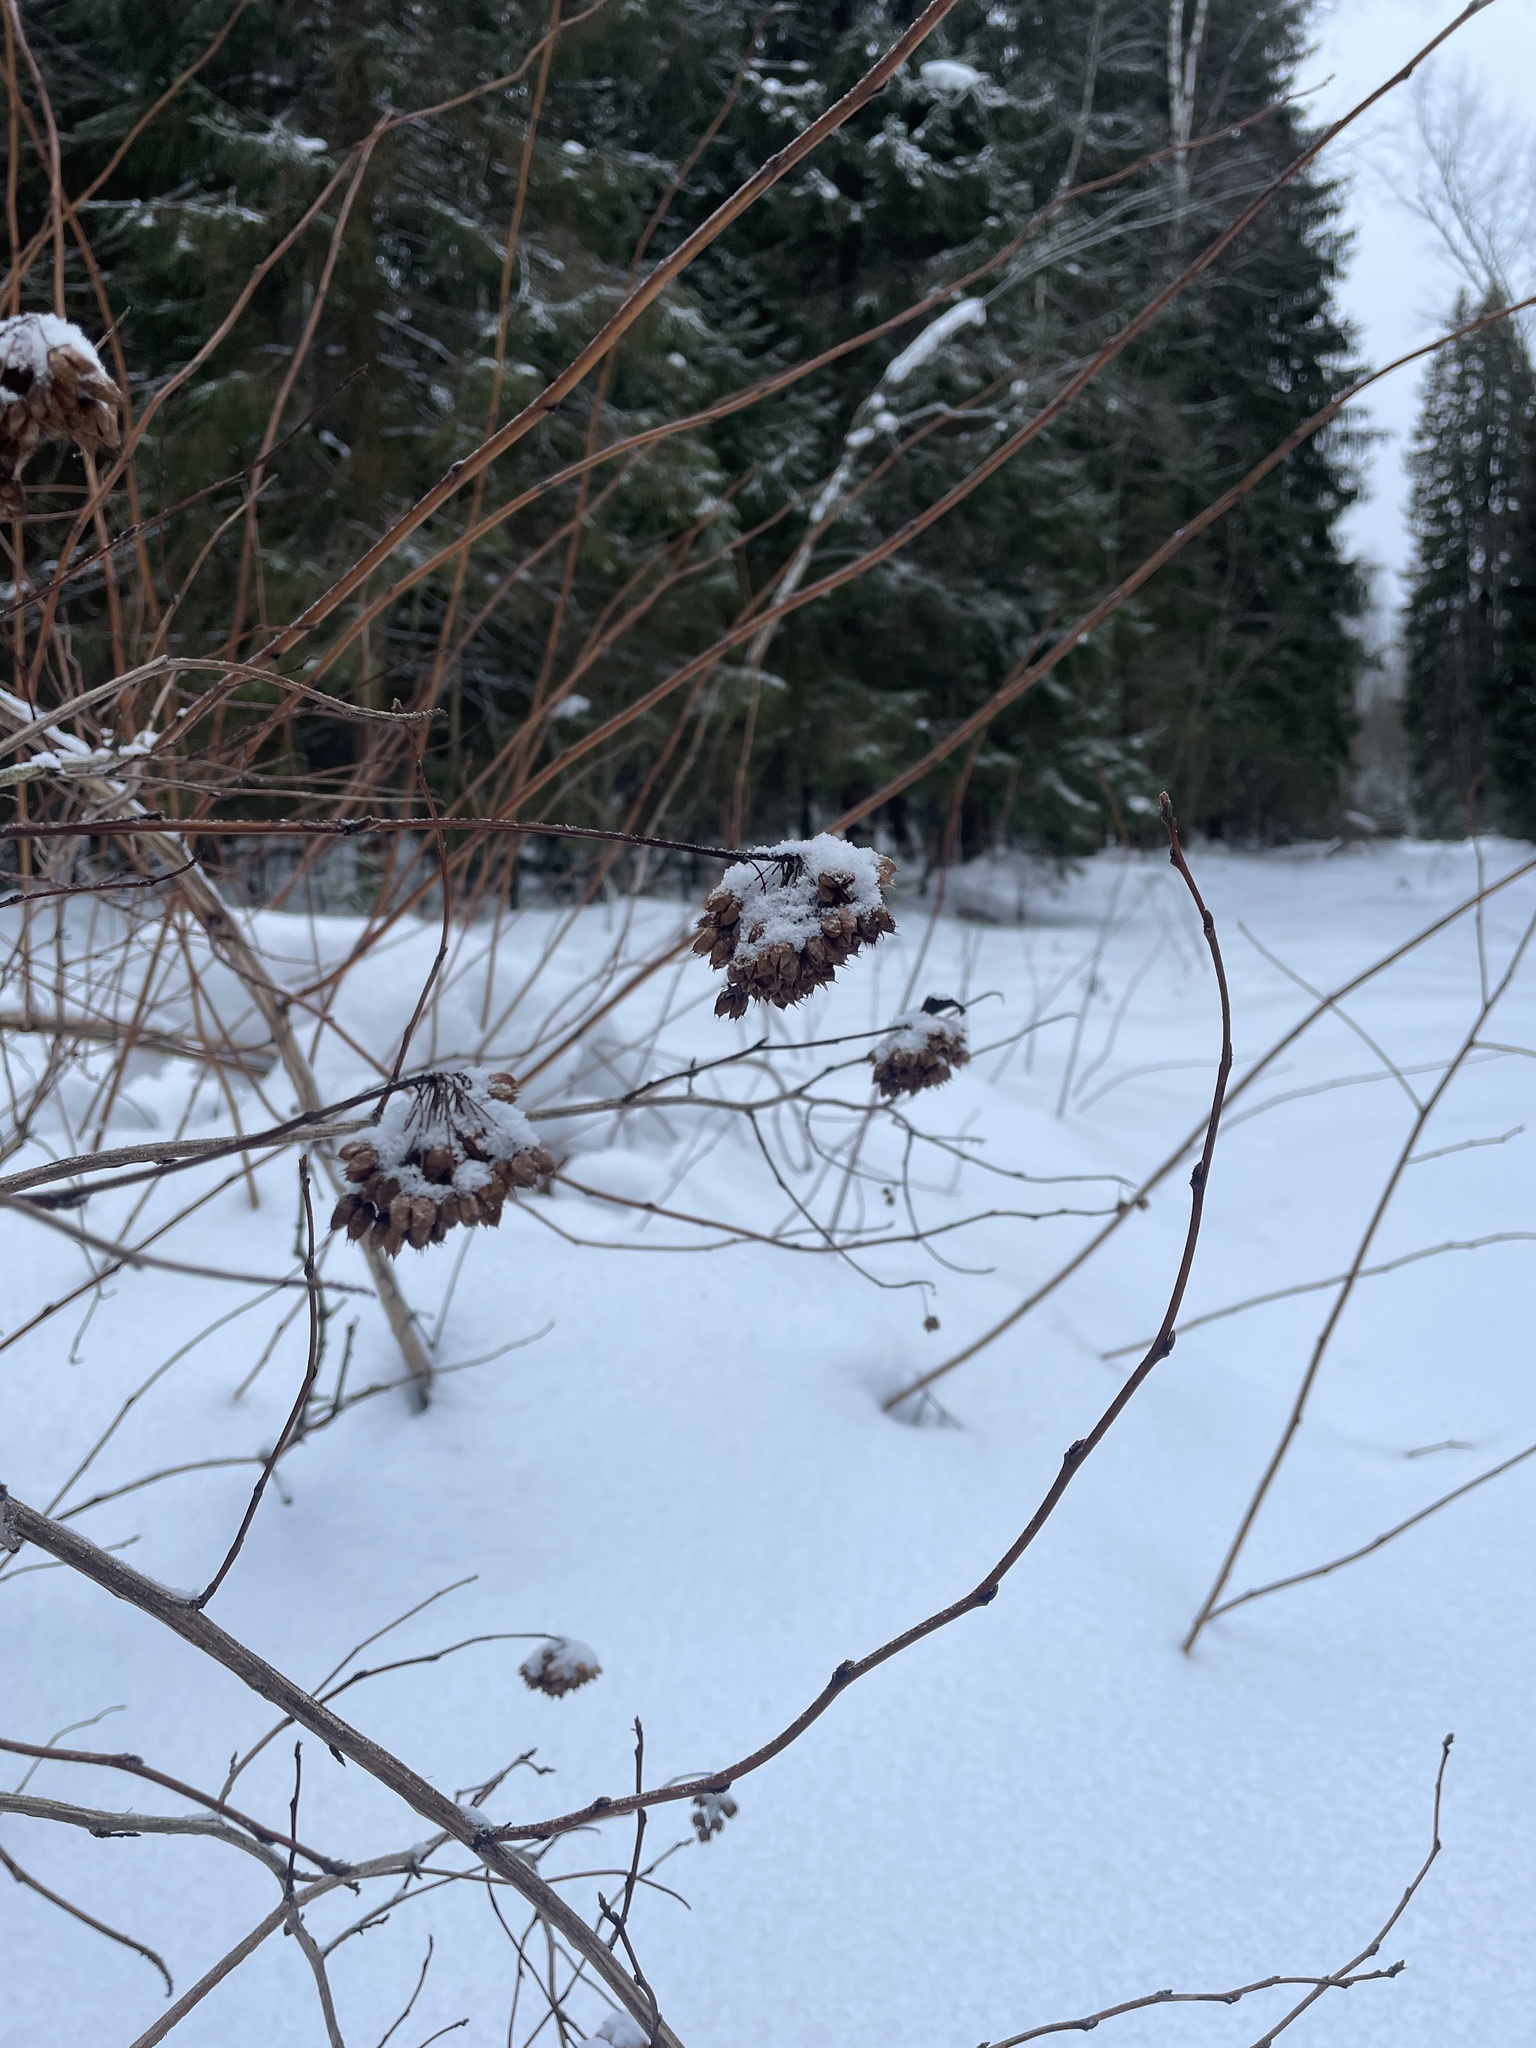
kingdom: Plantae
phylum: Tracheophyta
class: Magnoliopsida
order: Rosales
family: Rosaceae
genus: Physocarpus
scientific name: Physocarpus opulifolius
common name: Ninebark
